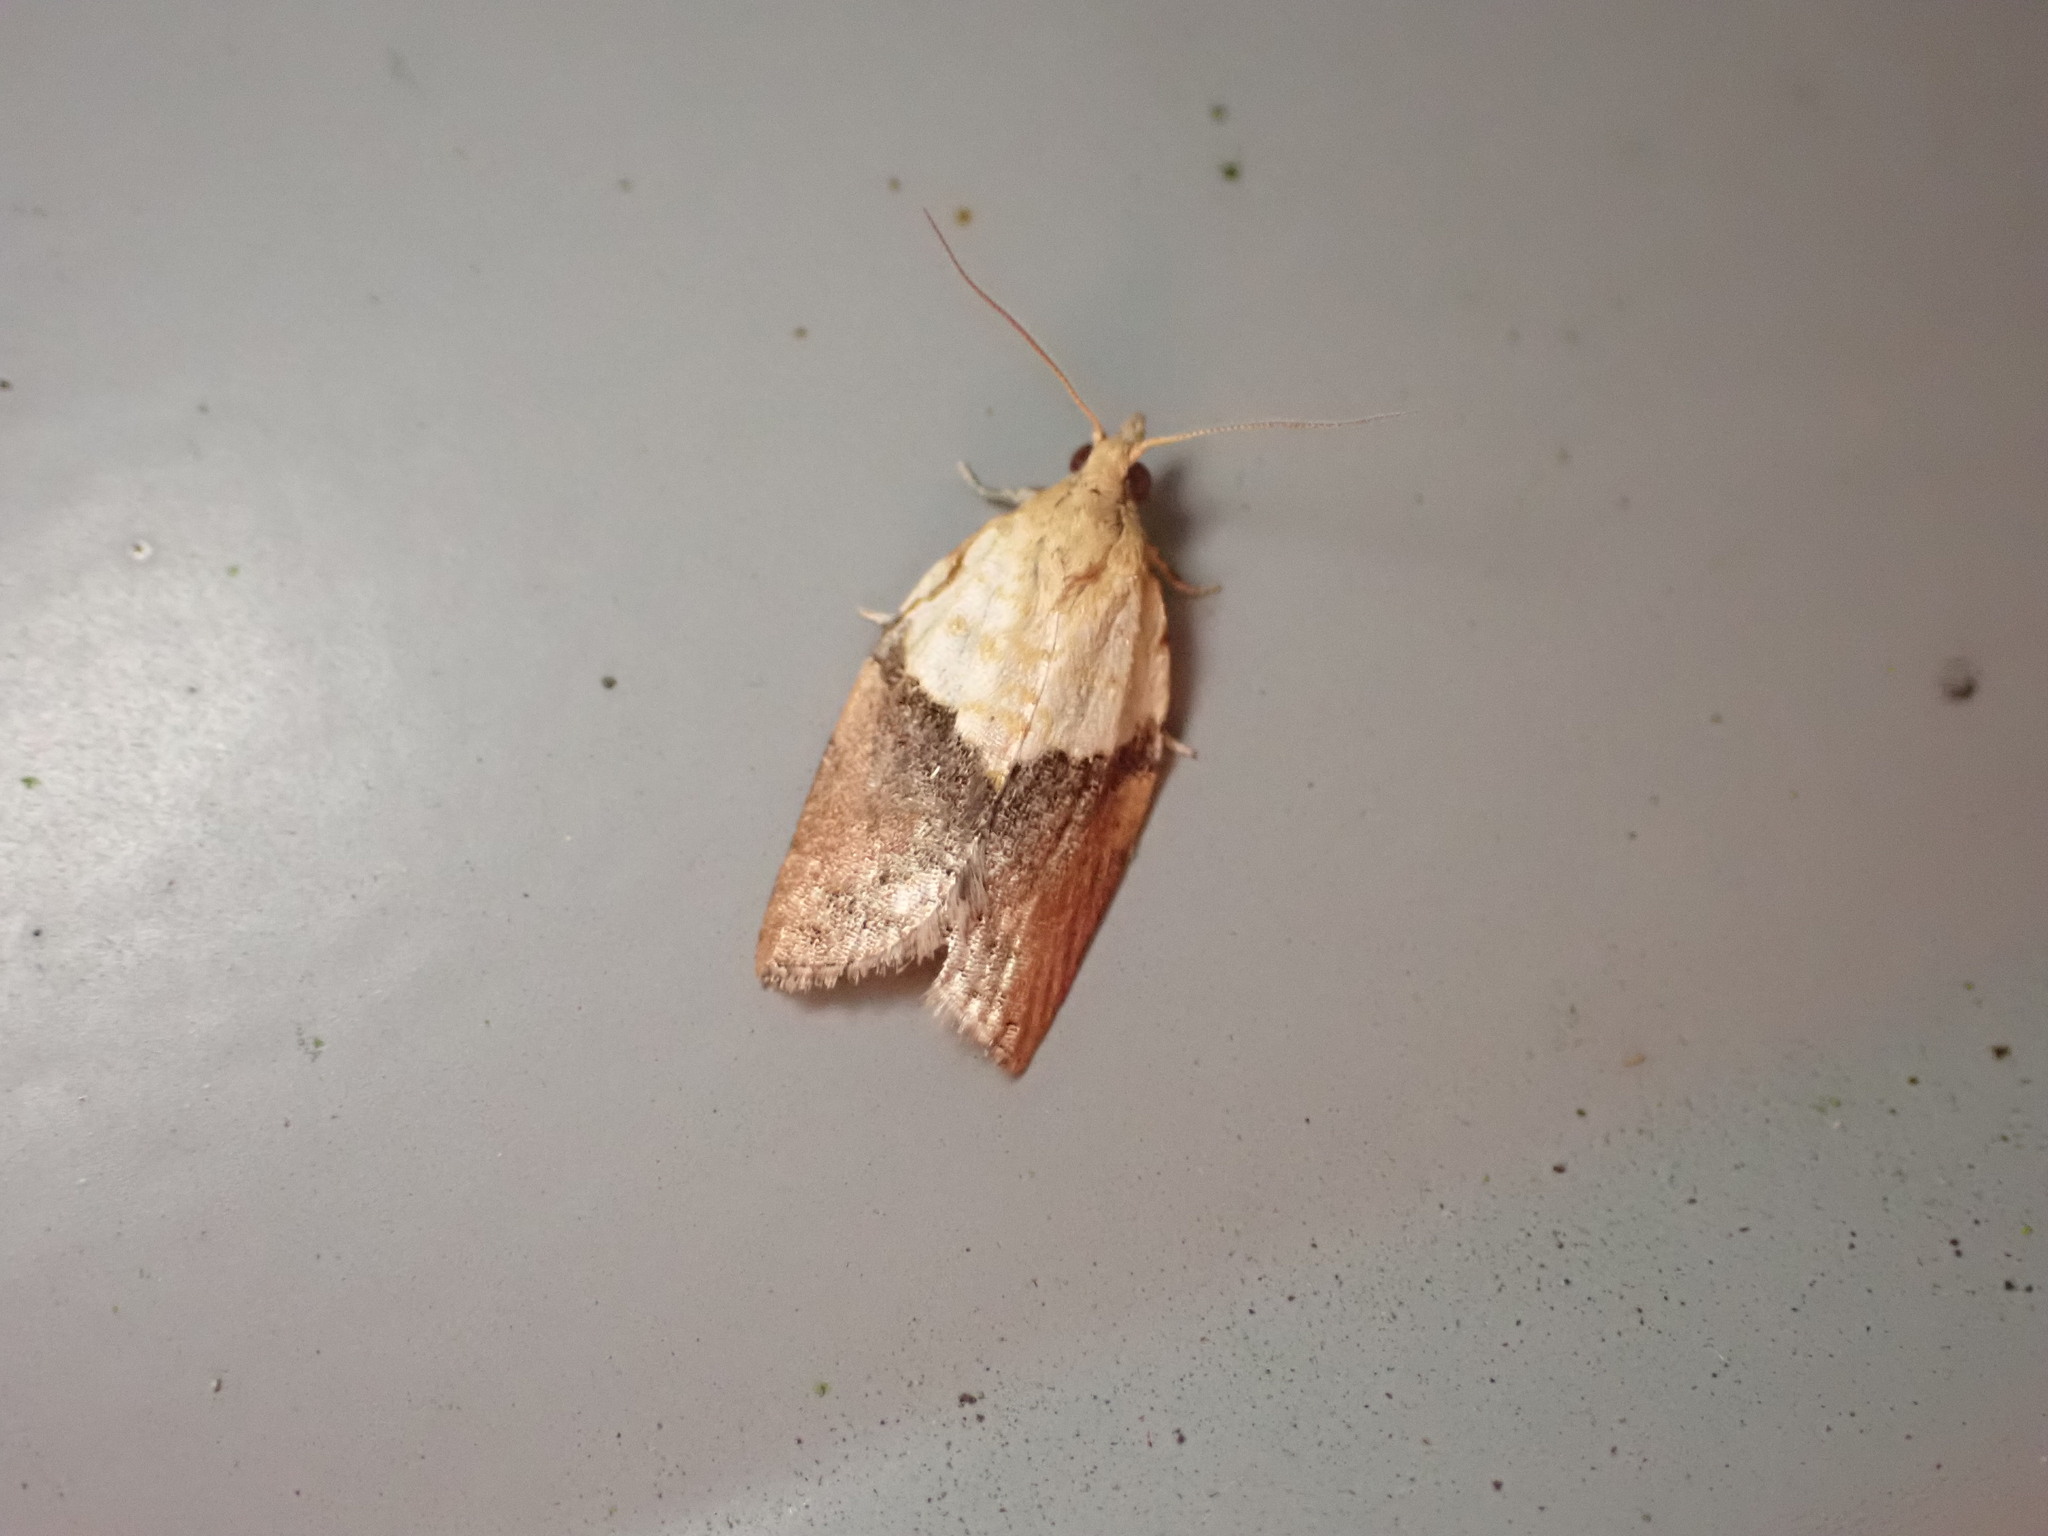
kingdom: Animalia
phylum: Arthropoda
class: Insecta
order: Lepidoptera
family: Tortricidae
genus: Epiphyas
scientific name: Epiphyas postvittana
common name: Light brown apple moth
